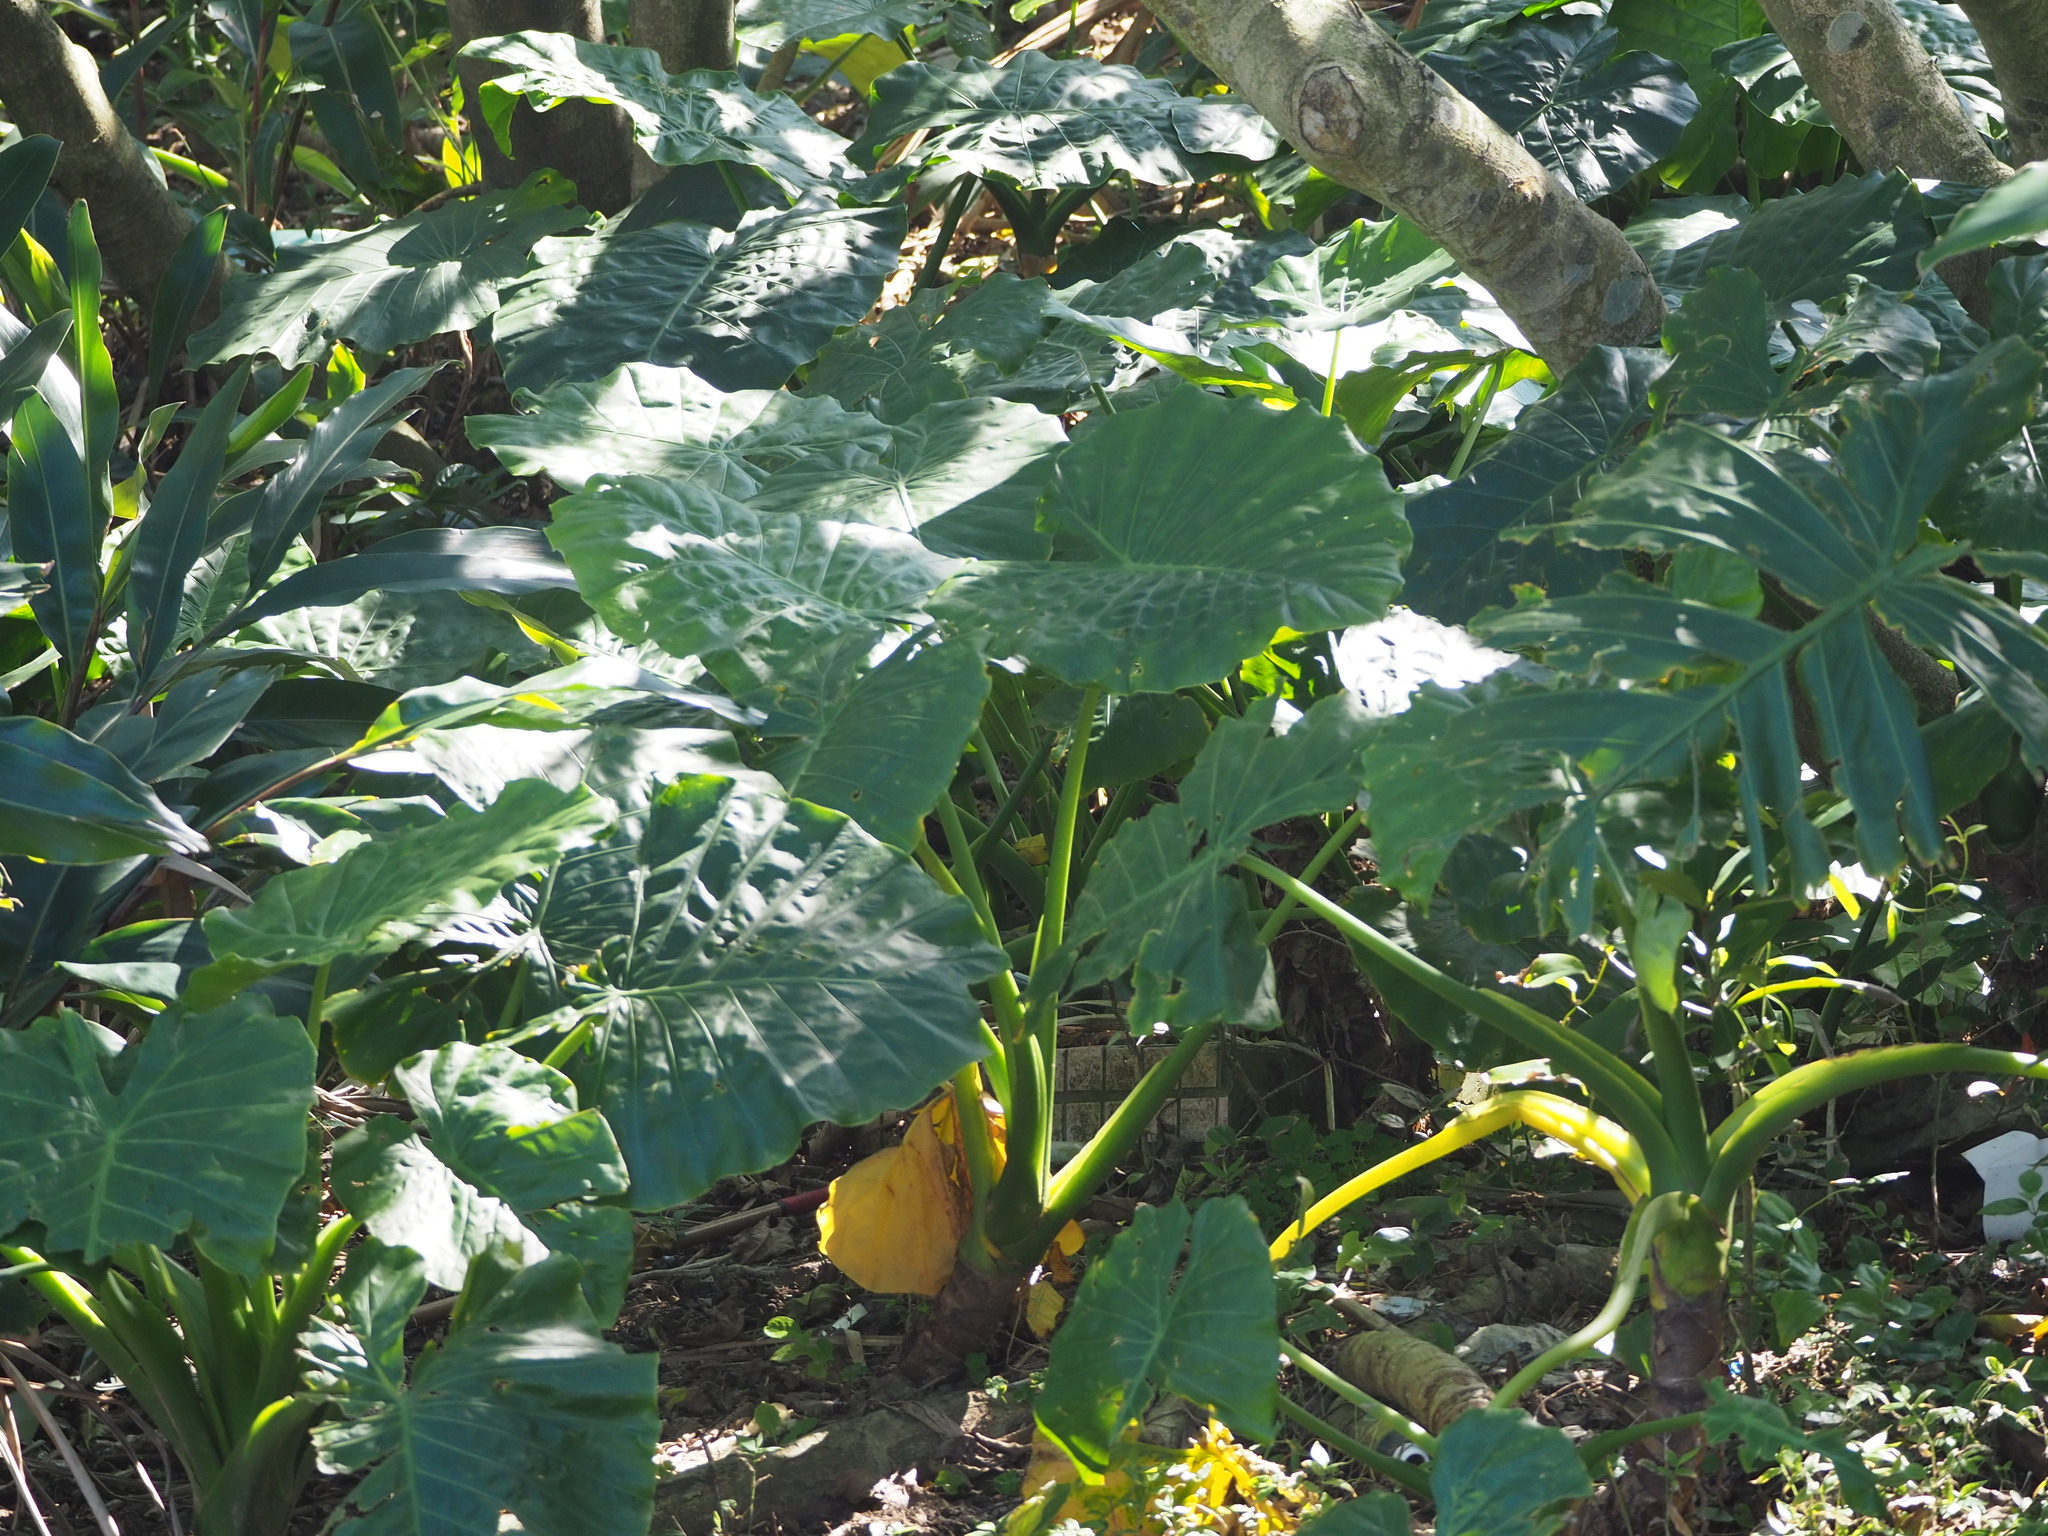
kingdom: Plantae
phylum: Tracheophyta
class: Liliopsida
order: Alismatales
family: Araceae
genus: Alocasia
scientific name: Alocasia odora
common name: Asian taro
